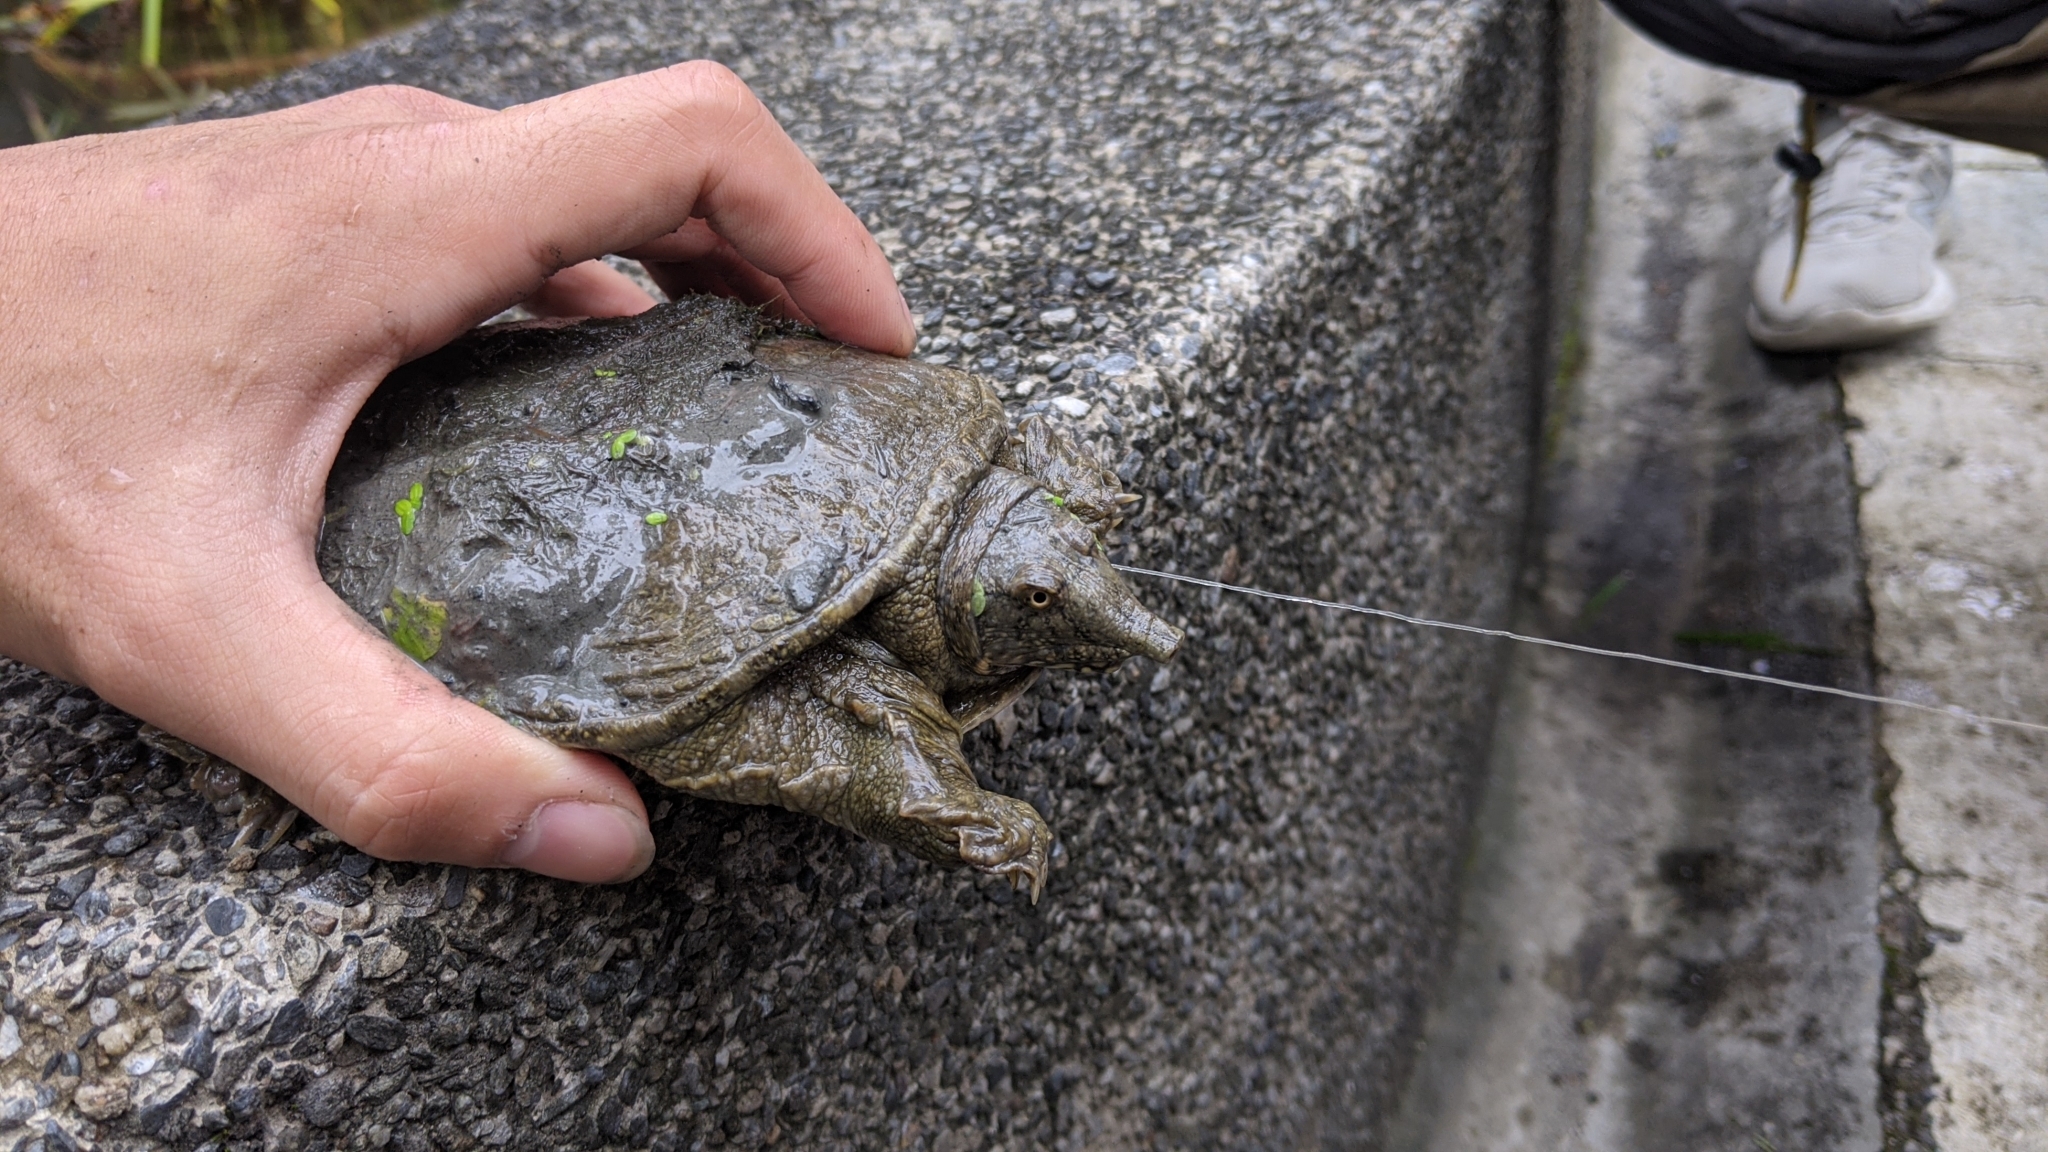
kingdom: Animalia
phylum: Chordata
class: Testudines
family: Trionychidae
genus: Pelodiscus
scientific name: Pelodiscus sinensis
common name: Chinese softshell turtle
